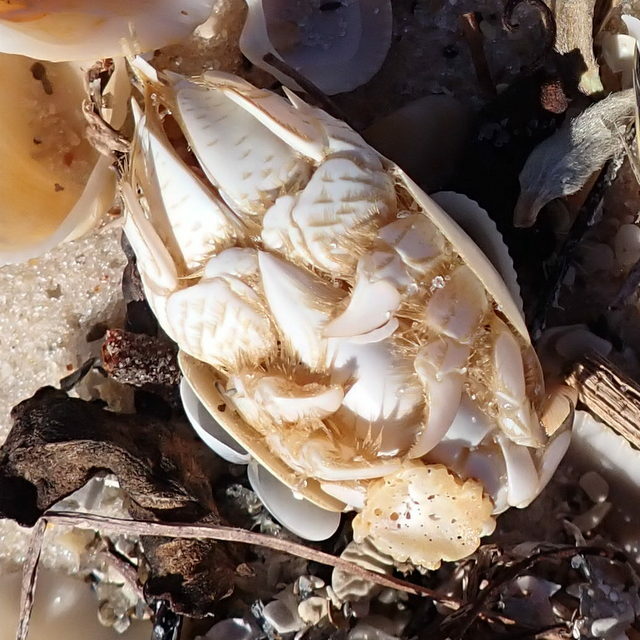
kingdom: Animalia
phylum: Arthropoda
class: Malacostraca
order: Decapoda
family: Hippidae
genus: Emerita
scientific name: Emerita talpoida
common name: Atlantic sand crab
